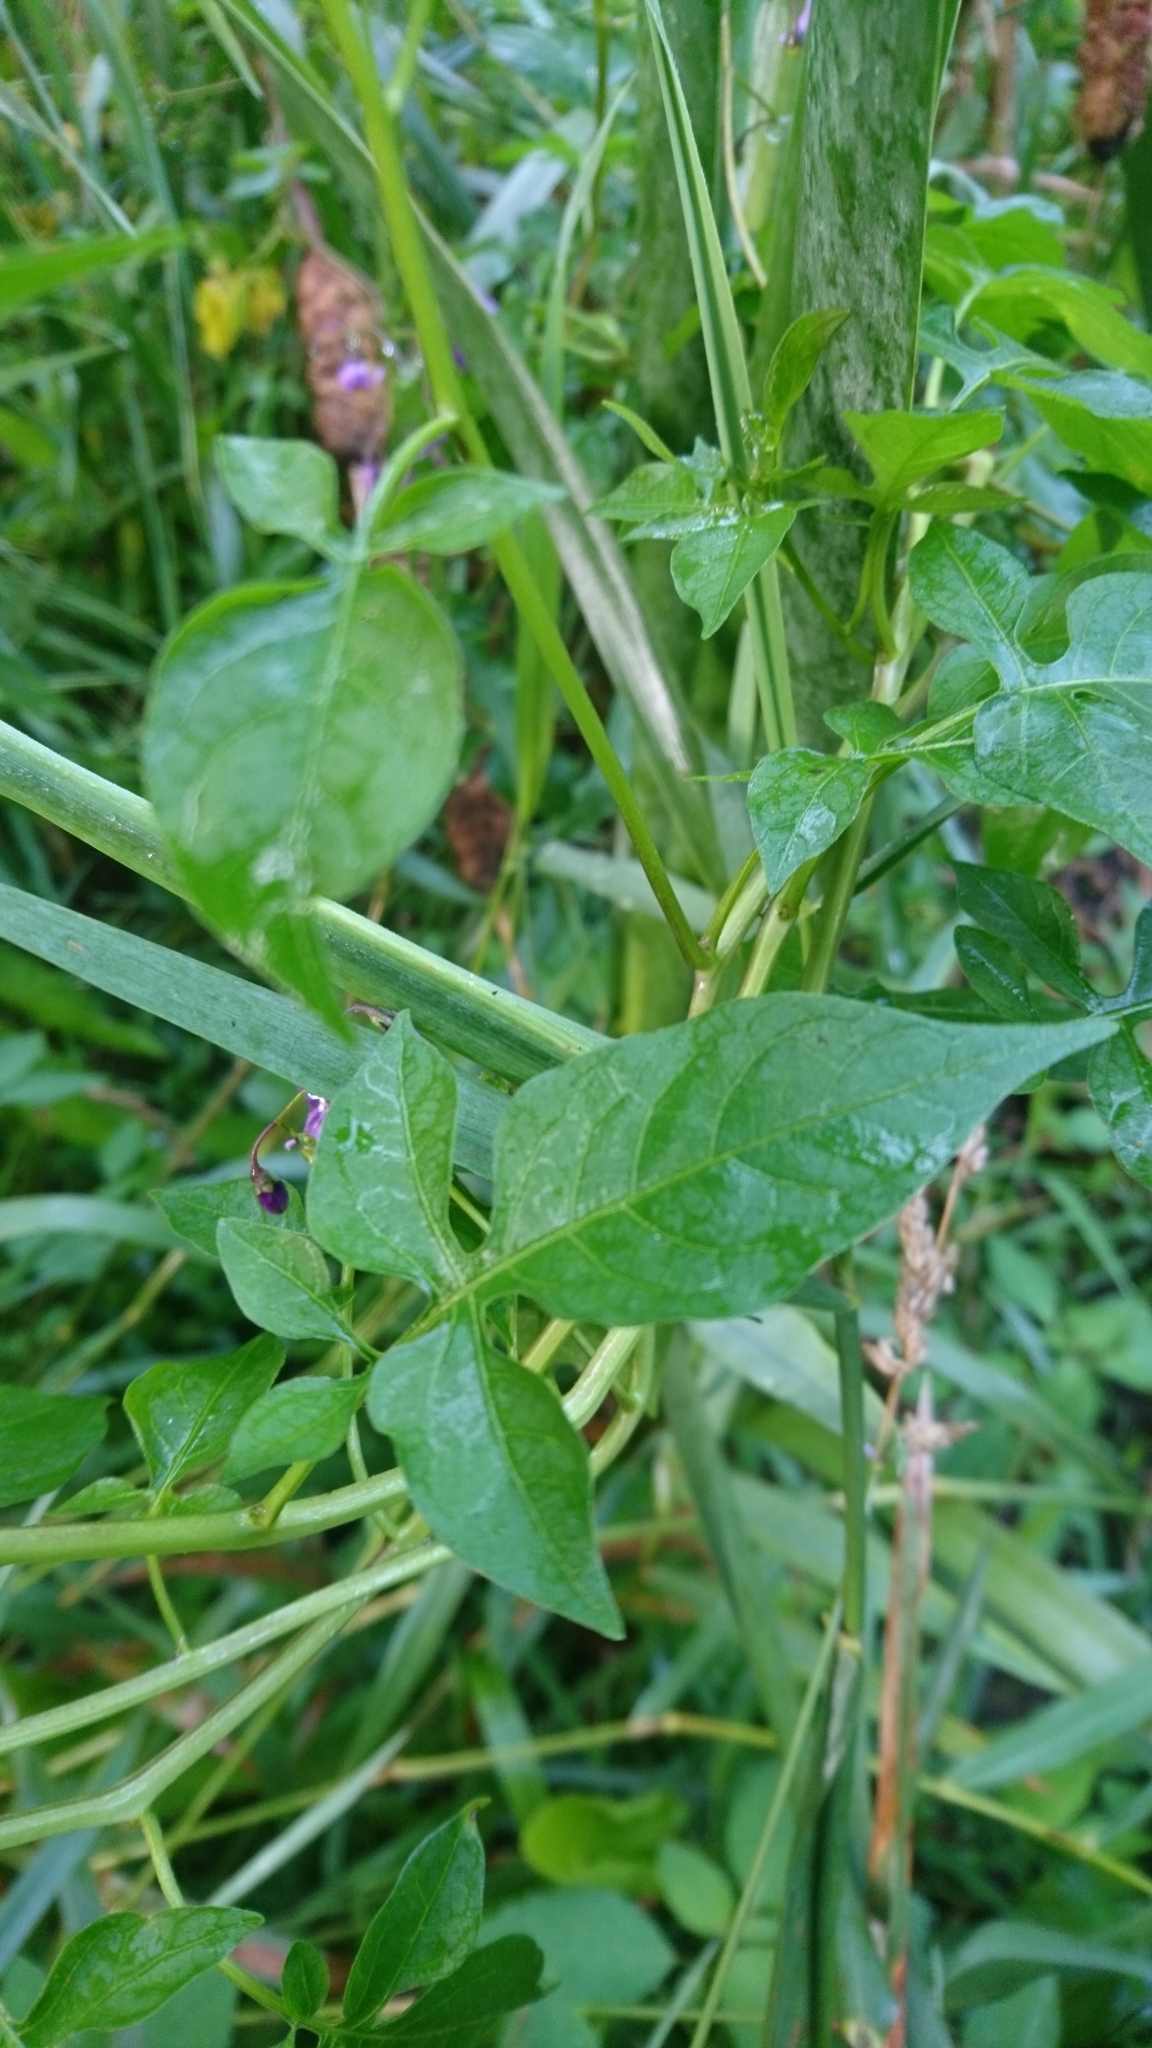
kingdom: Plantae
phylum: Tracheophyta
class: Magnoliopsida
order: Solanales
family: Solanaceae
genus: Solanum
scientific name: Solanum dulcamara
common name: Climbing nightshade
